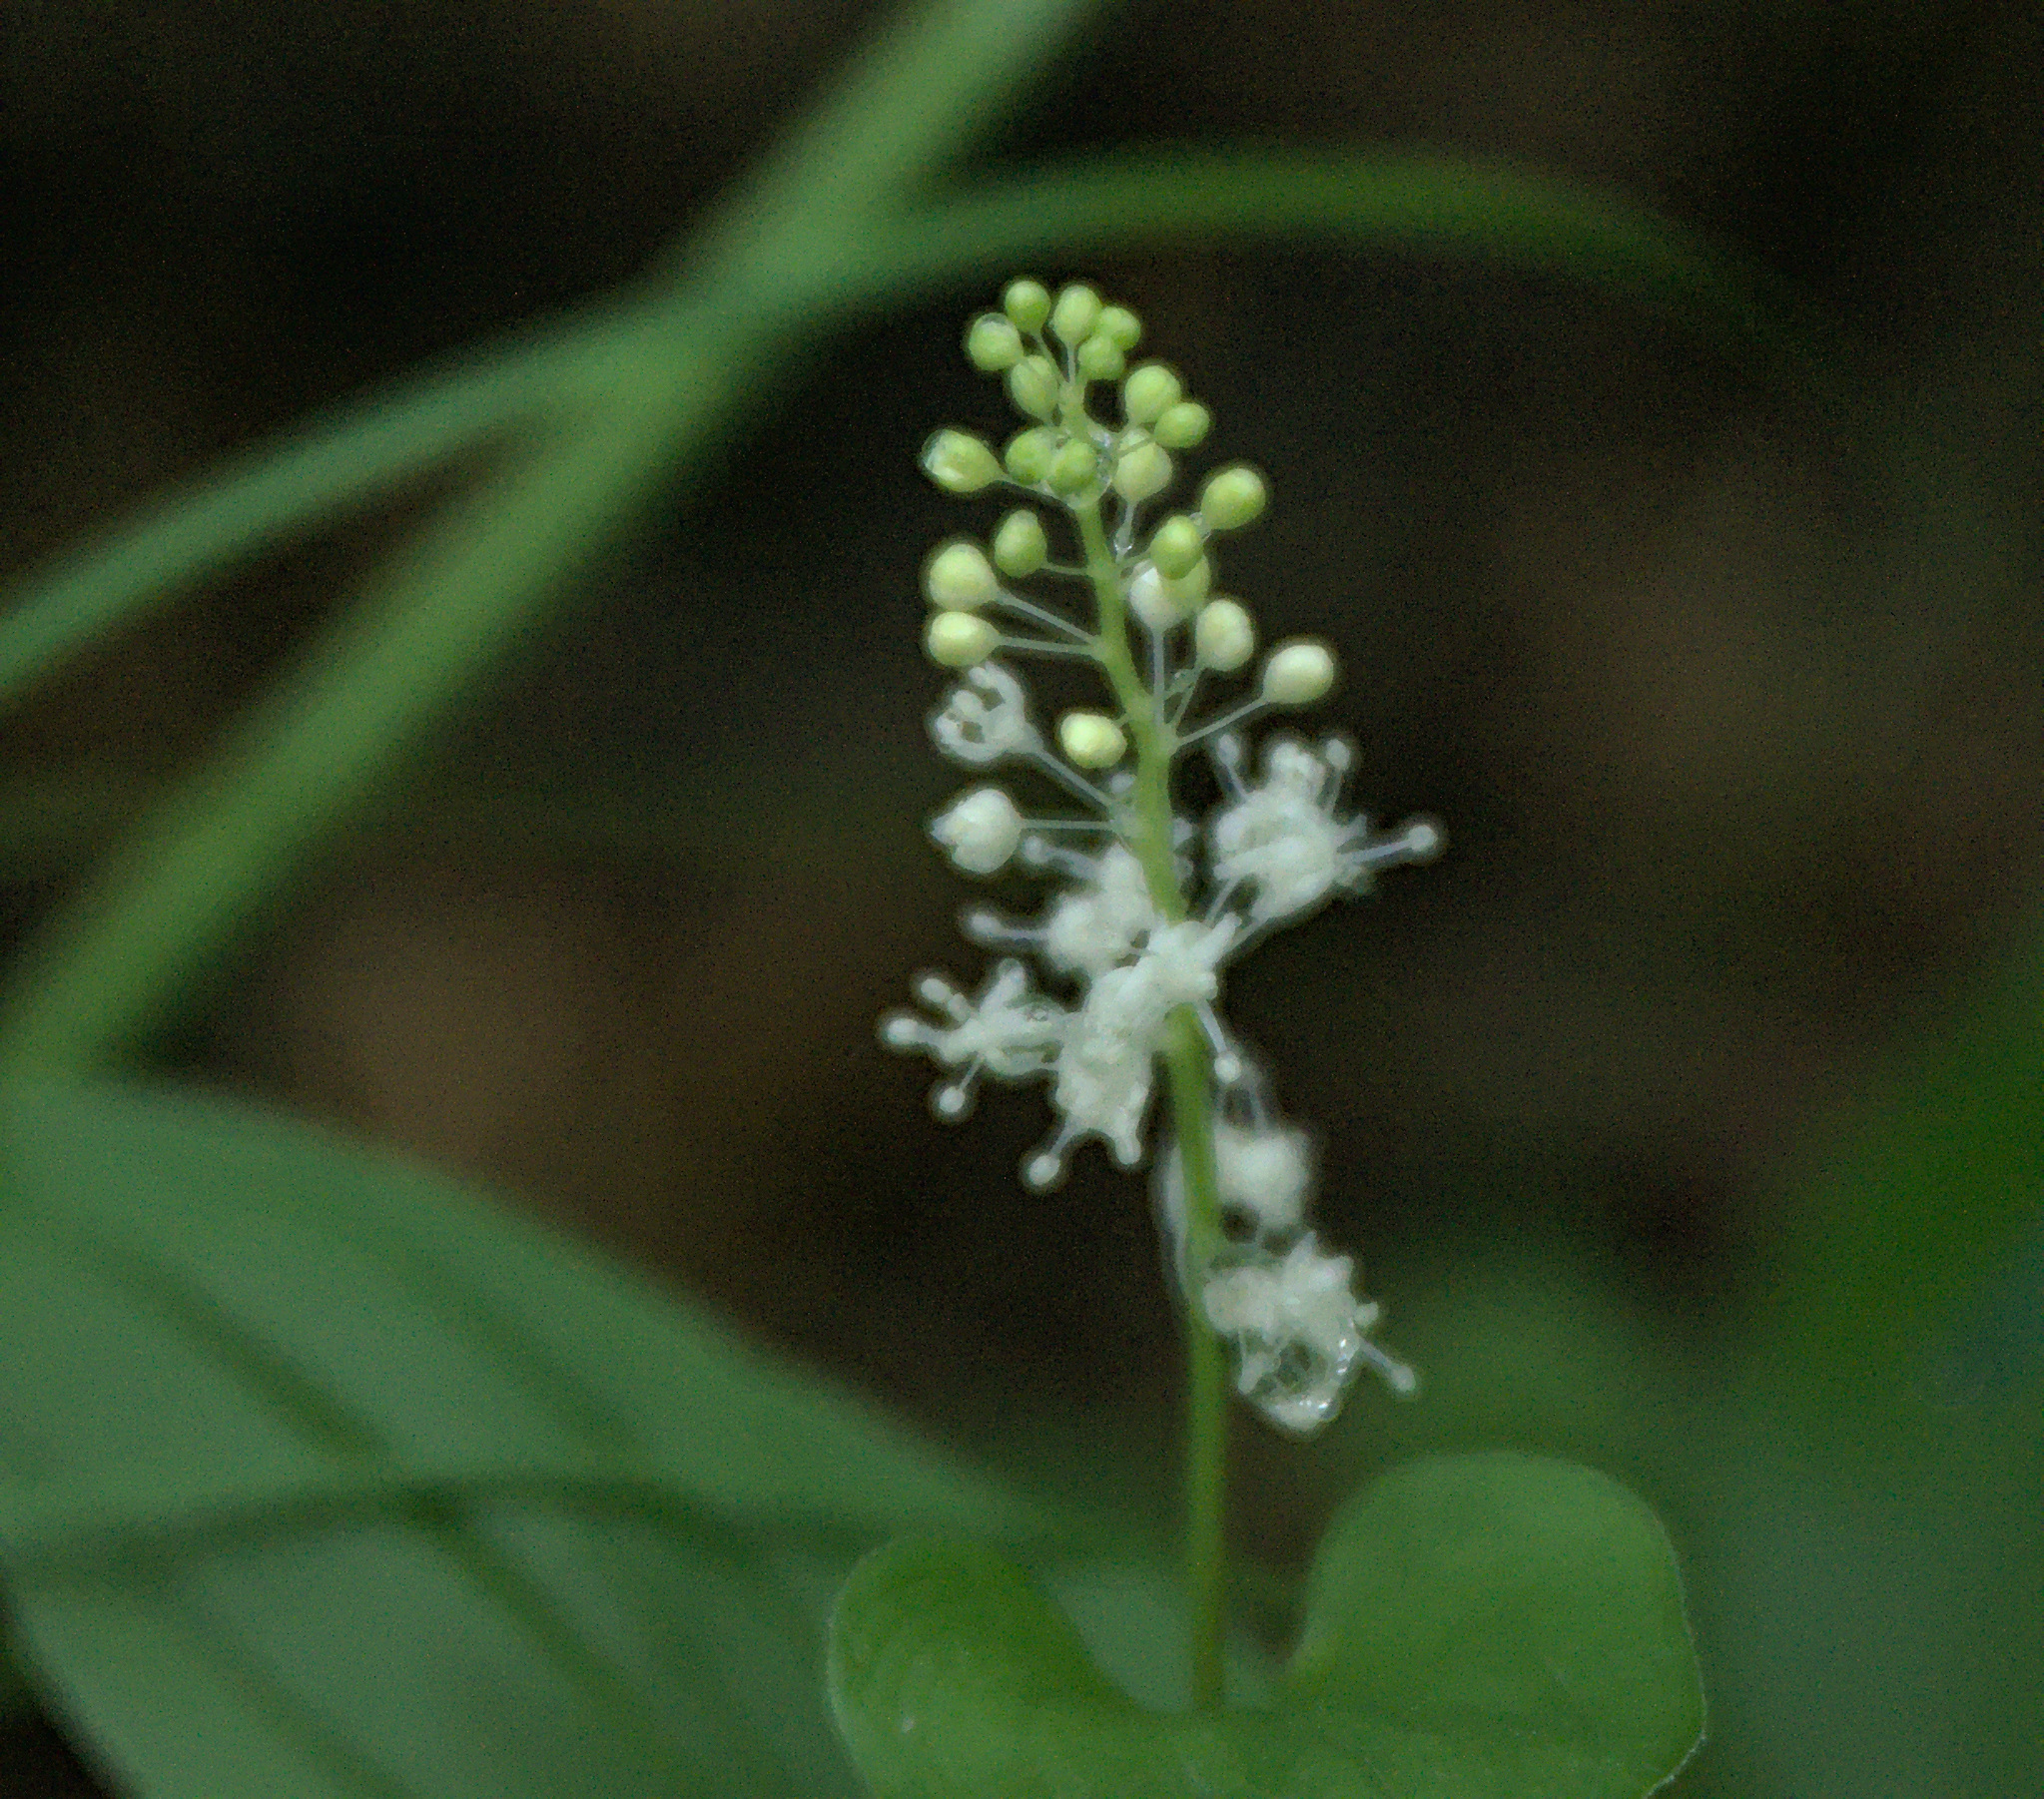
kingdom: Plantae
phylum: Tracheophyta
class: Liliopsida
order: Asparagales
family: Asparagaceae
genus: Maianthemum
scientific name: Maianthemum bifolium
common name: May lily
